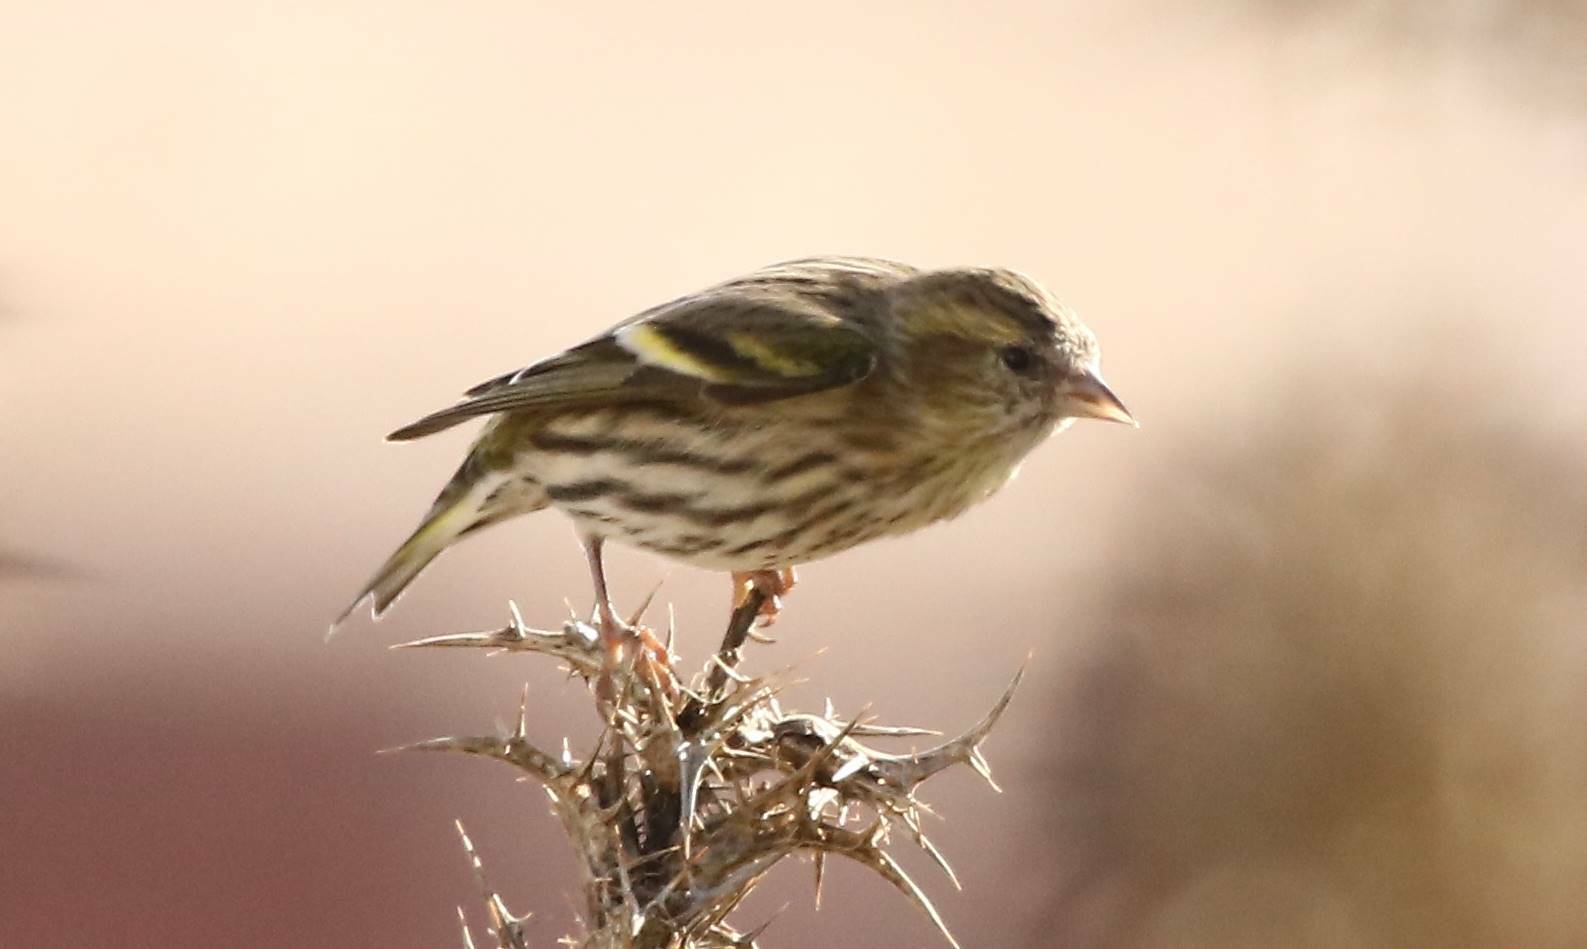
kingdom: Animalia
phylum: Chordata
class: Aves
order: Passeriformes
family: Fringillidae
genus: Spinus
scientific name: Spinus spinus
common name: Eurasian siskin
